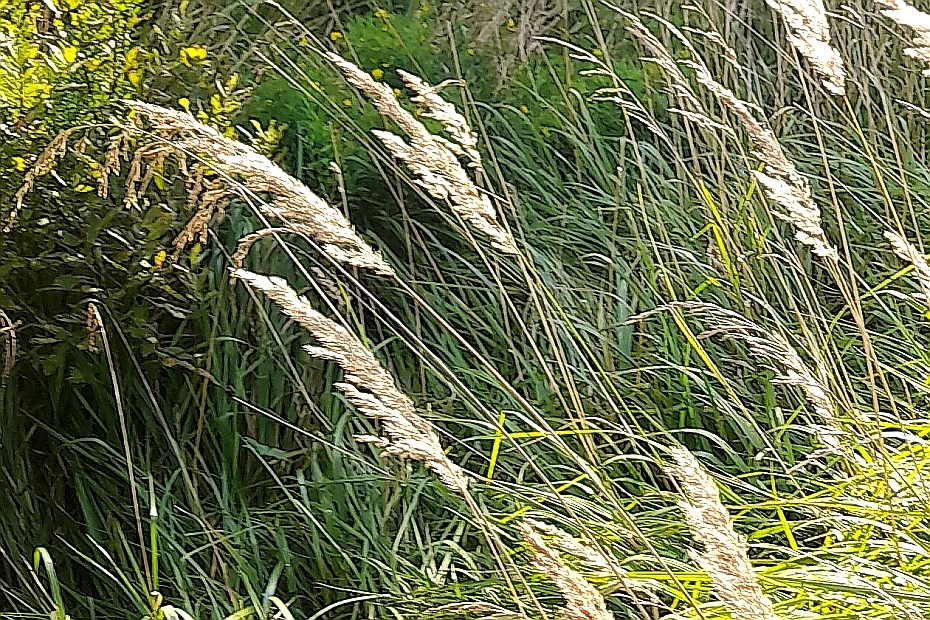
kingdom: Plantae
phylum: Tracheophyta
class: Liliopsida
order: Poales
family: Poaceae
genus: Calamagrostis
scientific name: Calamagrostis epigejos
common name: Wood small-reed
